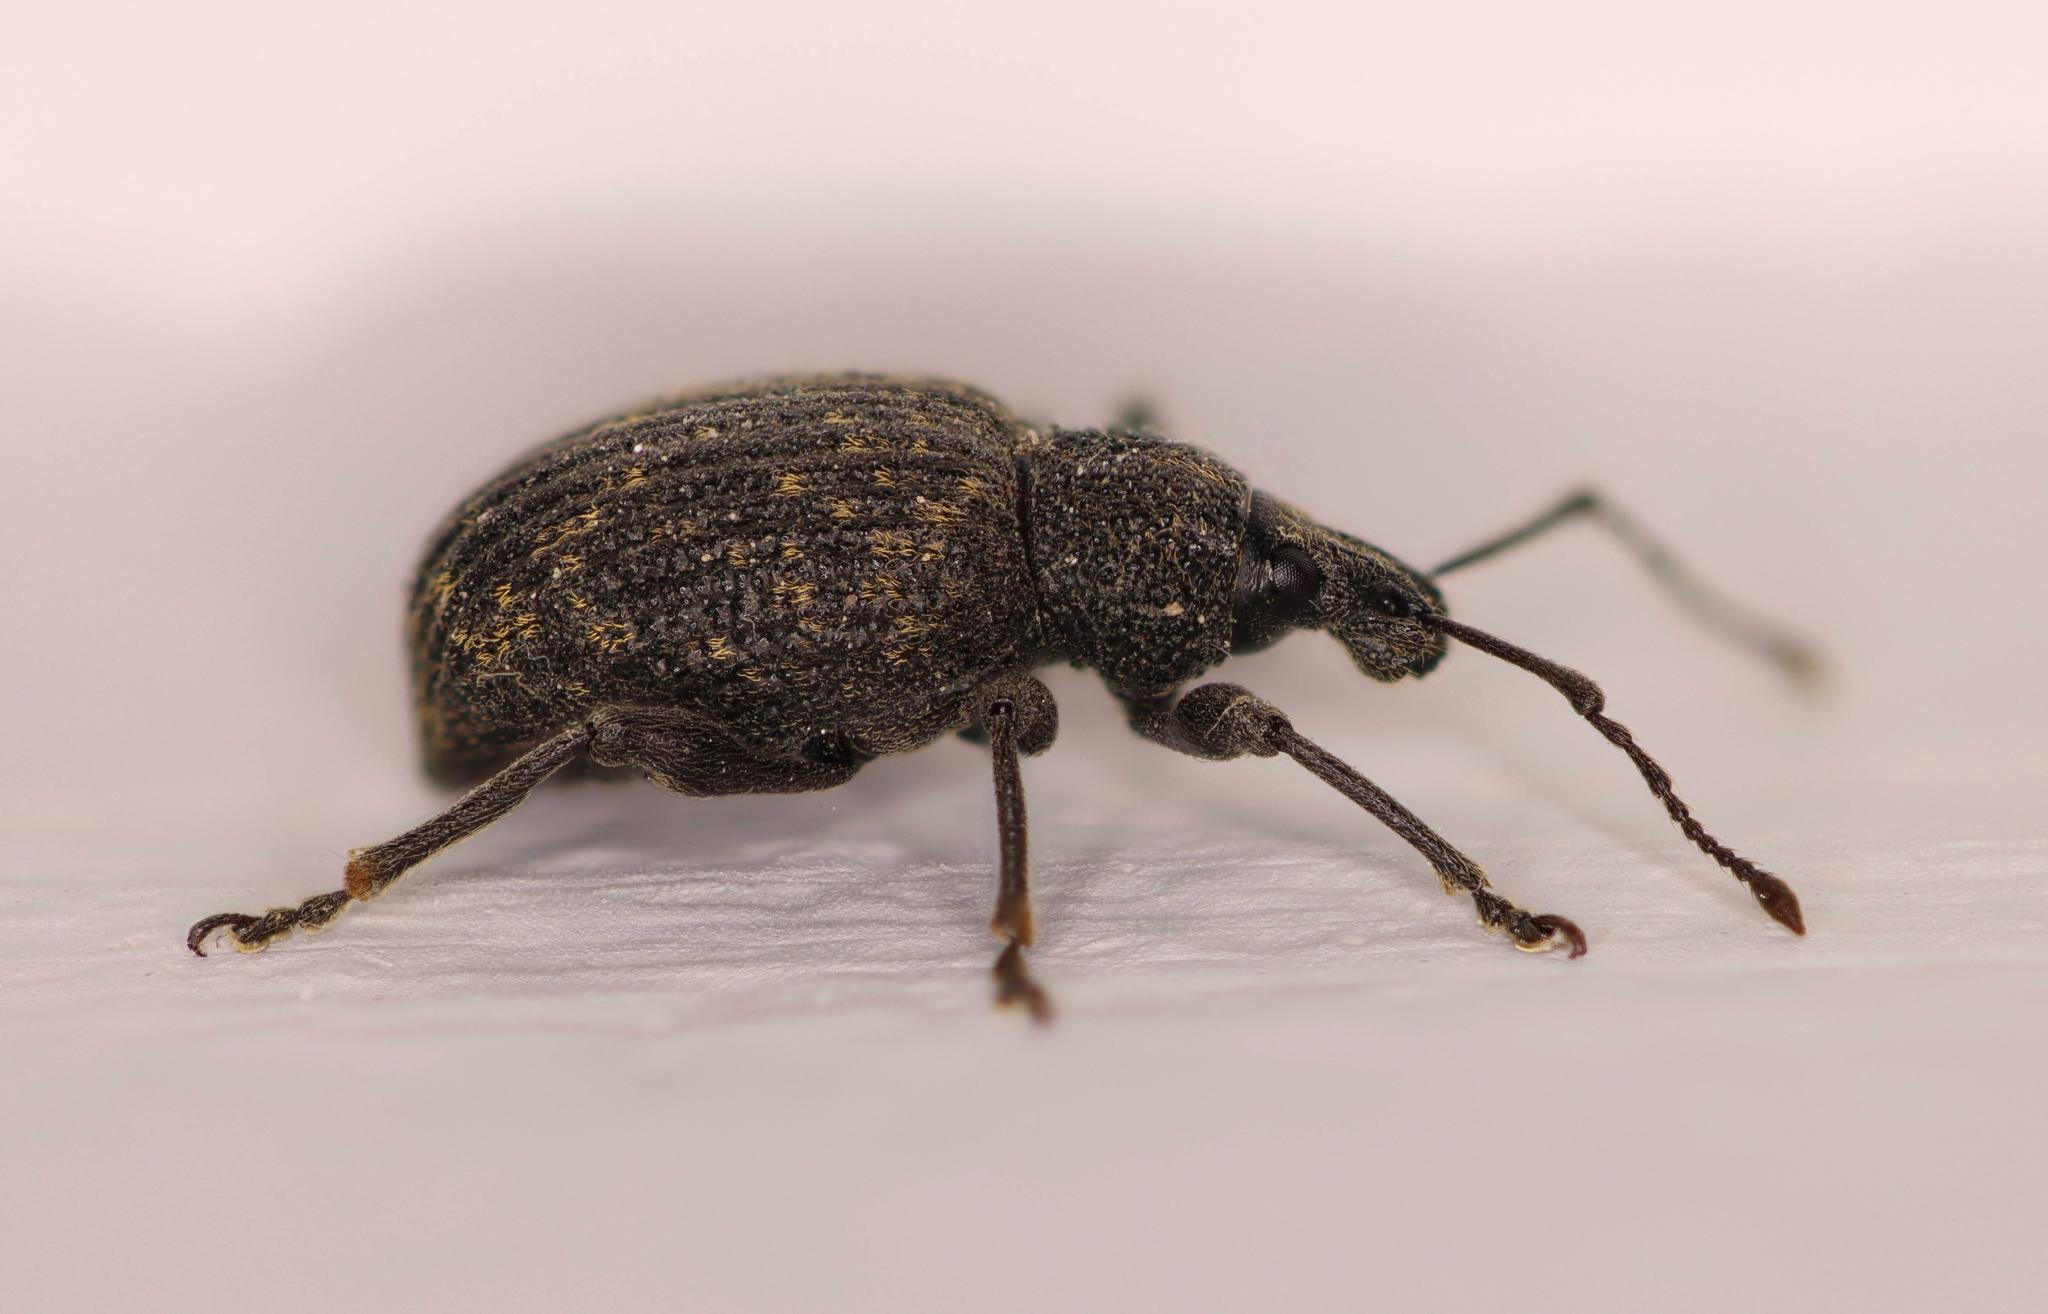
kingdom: Animalia
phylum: Arthropoda
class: Insecta
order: Coleoptera
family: Curculionidae
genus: Otiorhynchus
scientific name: Otiorhynchus sulcatus
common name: Black vine weevil
